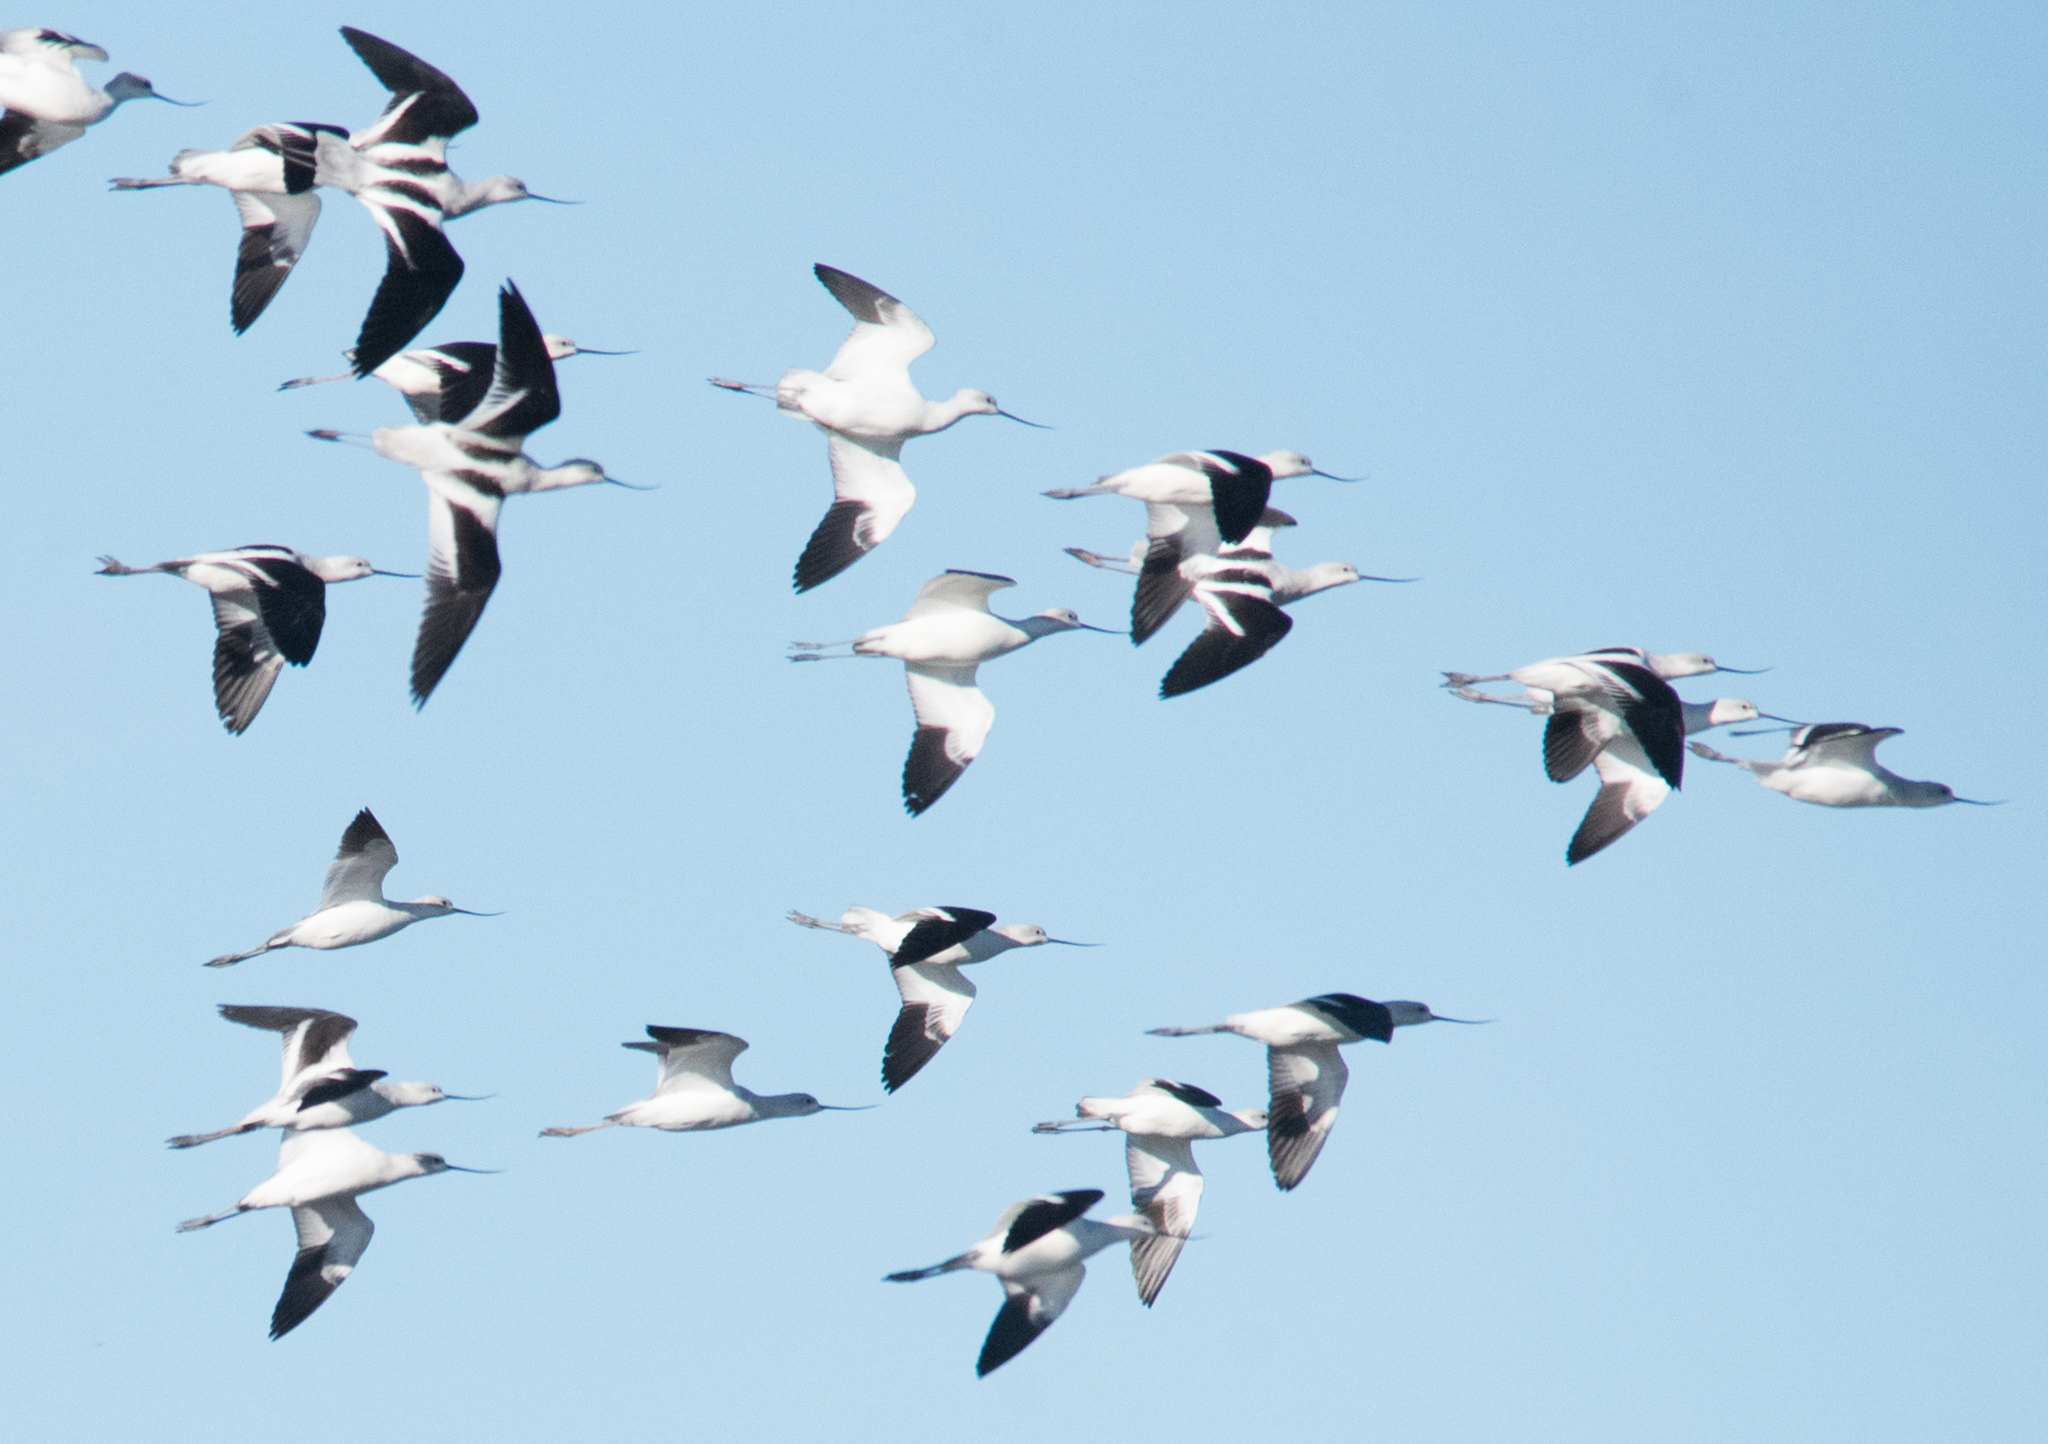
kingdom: Animalia
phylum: Chordata
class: Aves
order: Charadriiformes
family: Recurvirostridae
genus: Recurvirostra
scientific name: Recurvirostra americana
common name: American avocet
